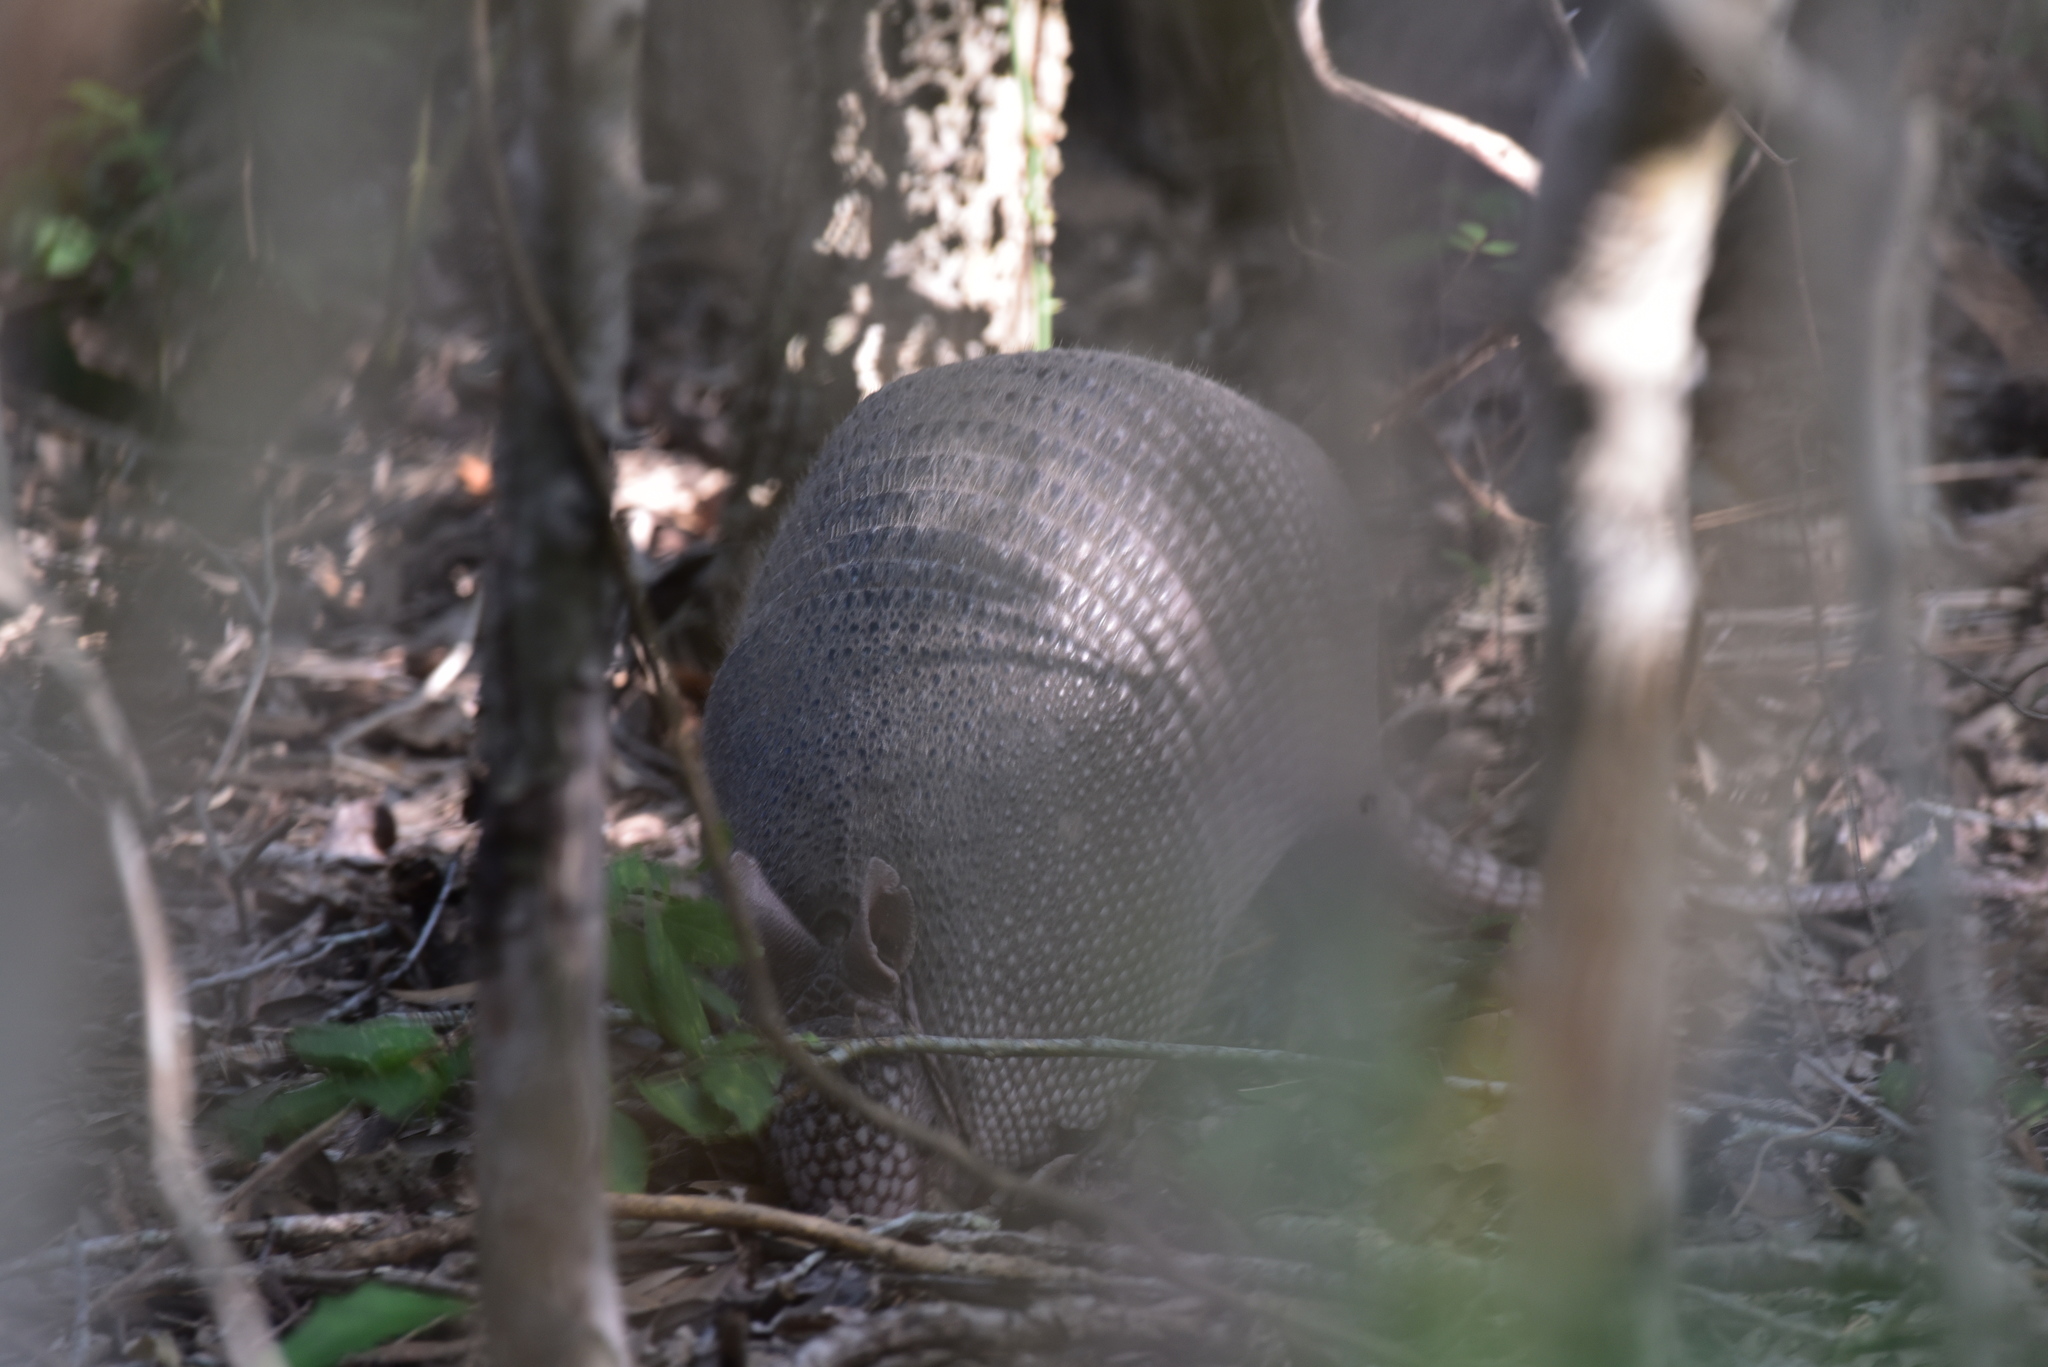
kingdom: Animalia
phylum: Chordata
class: Mammalia
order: Cingulata
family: Dasypodidae
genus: Dasypus
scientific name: Dasypus novemcinctus
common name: Nine-banded armadillo
